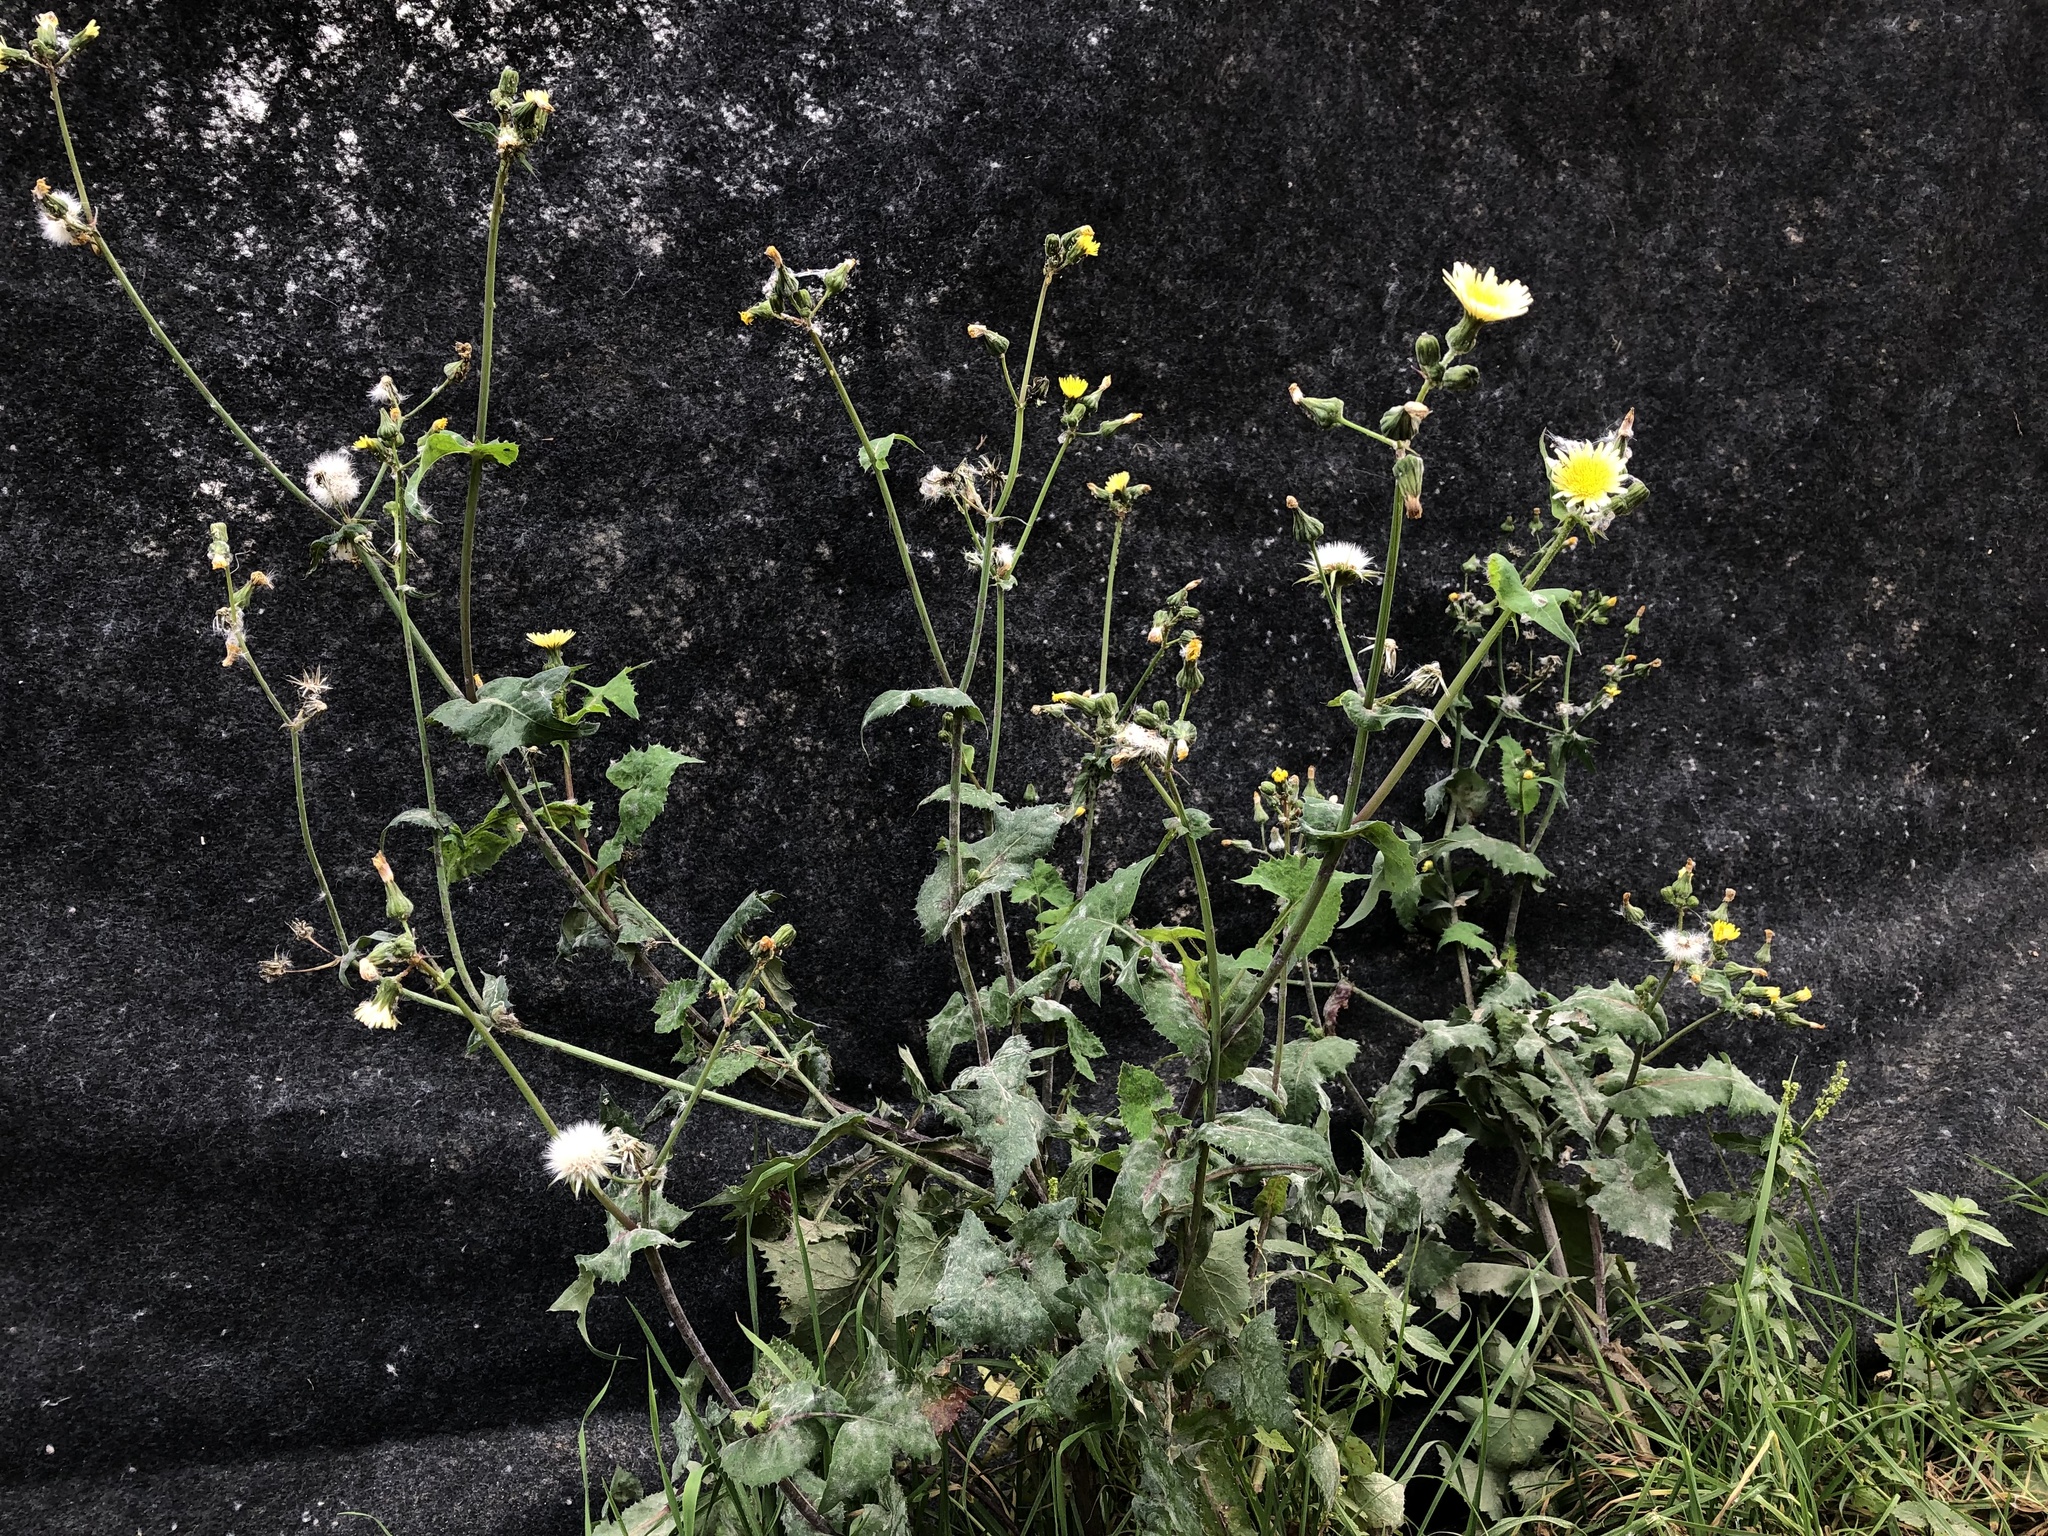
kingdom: Plantae
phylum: Tracheophyta
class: Magnoliopsida
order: Asterales
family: Asteraceae
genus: Sonchus
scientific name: Sonchus oleraceus
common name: Common sowthistle
